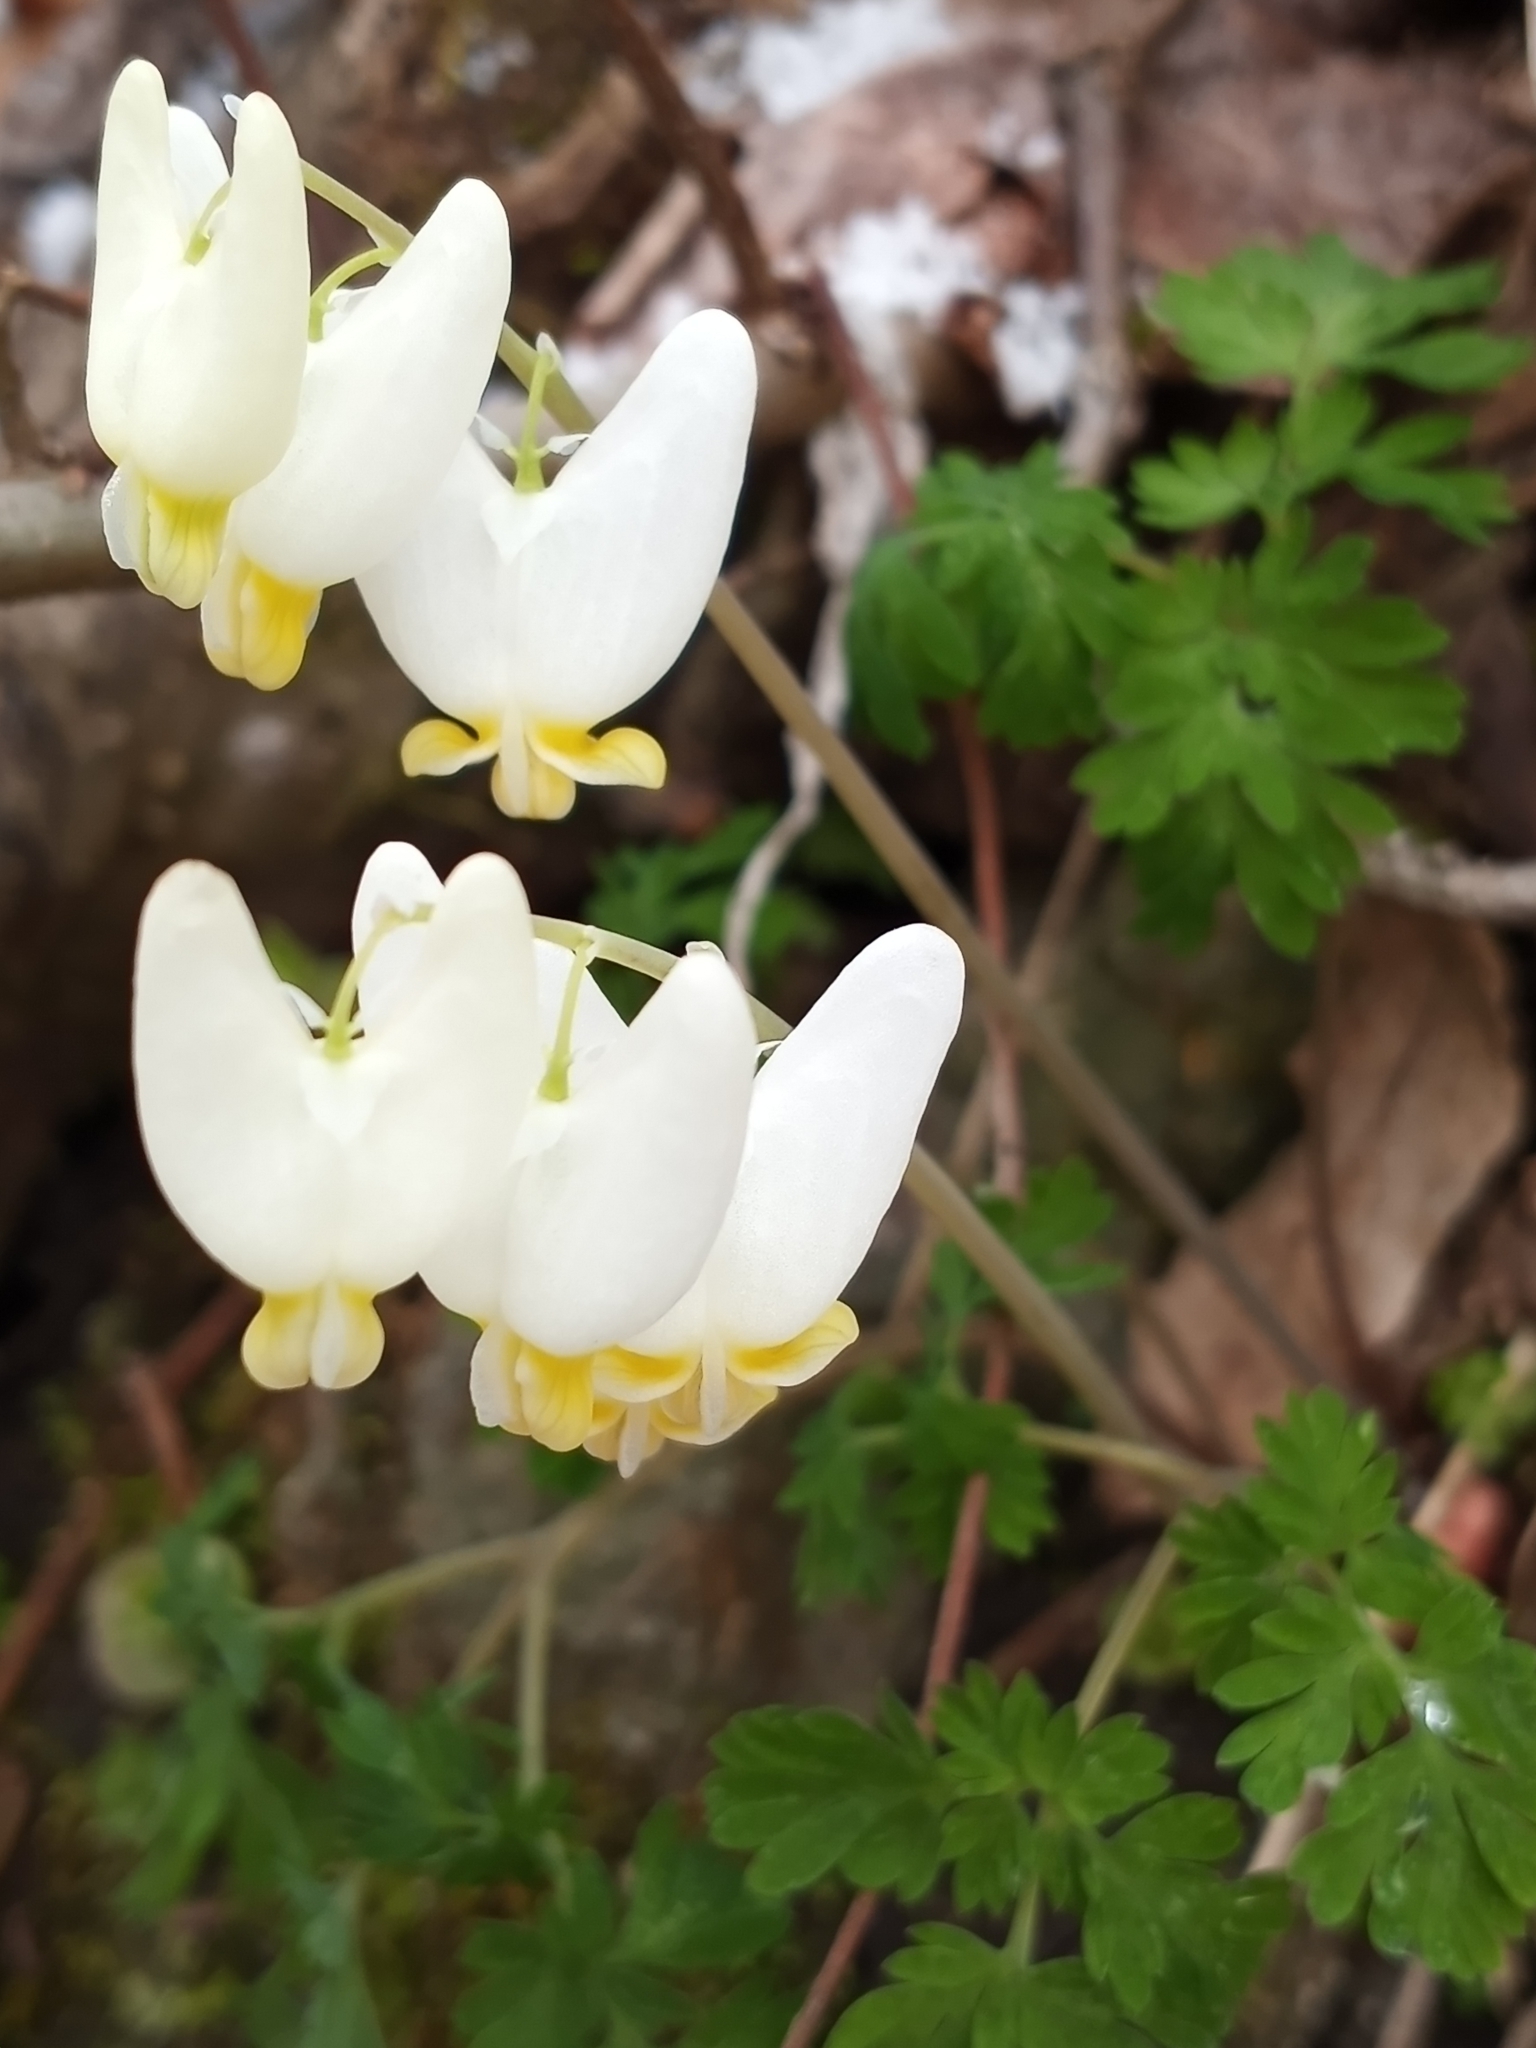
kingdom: Plantae
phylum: Tracheophyta
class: Magnoliopsida
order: Ranunculales
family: Papaveraceae
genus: Dicentra
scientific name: Dicentra cucullaria
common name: Dutchman's breeches
